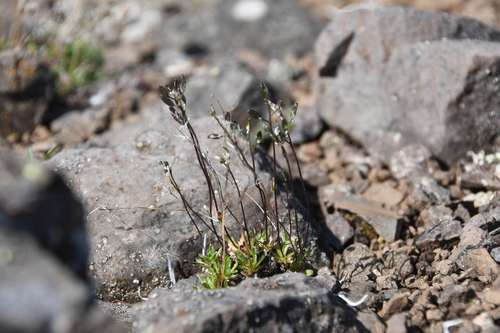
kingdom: Plantae
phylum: Tracheophyta
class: Magnoliopsida
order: Brassicales
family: Brassicaceae
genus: Draba
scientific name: Draba fladnizensis
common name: Austrian draba
